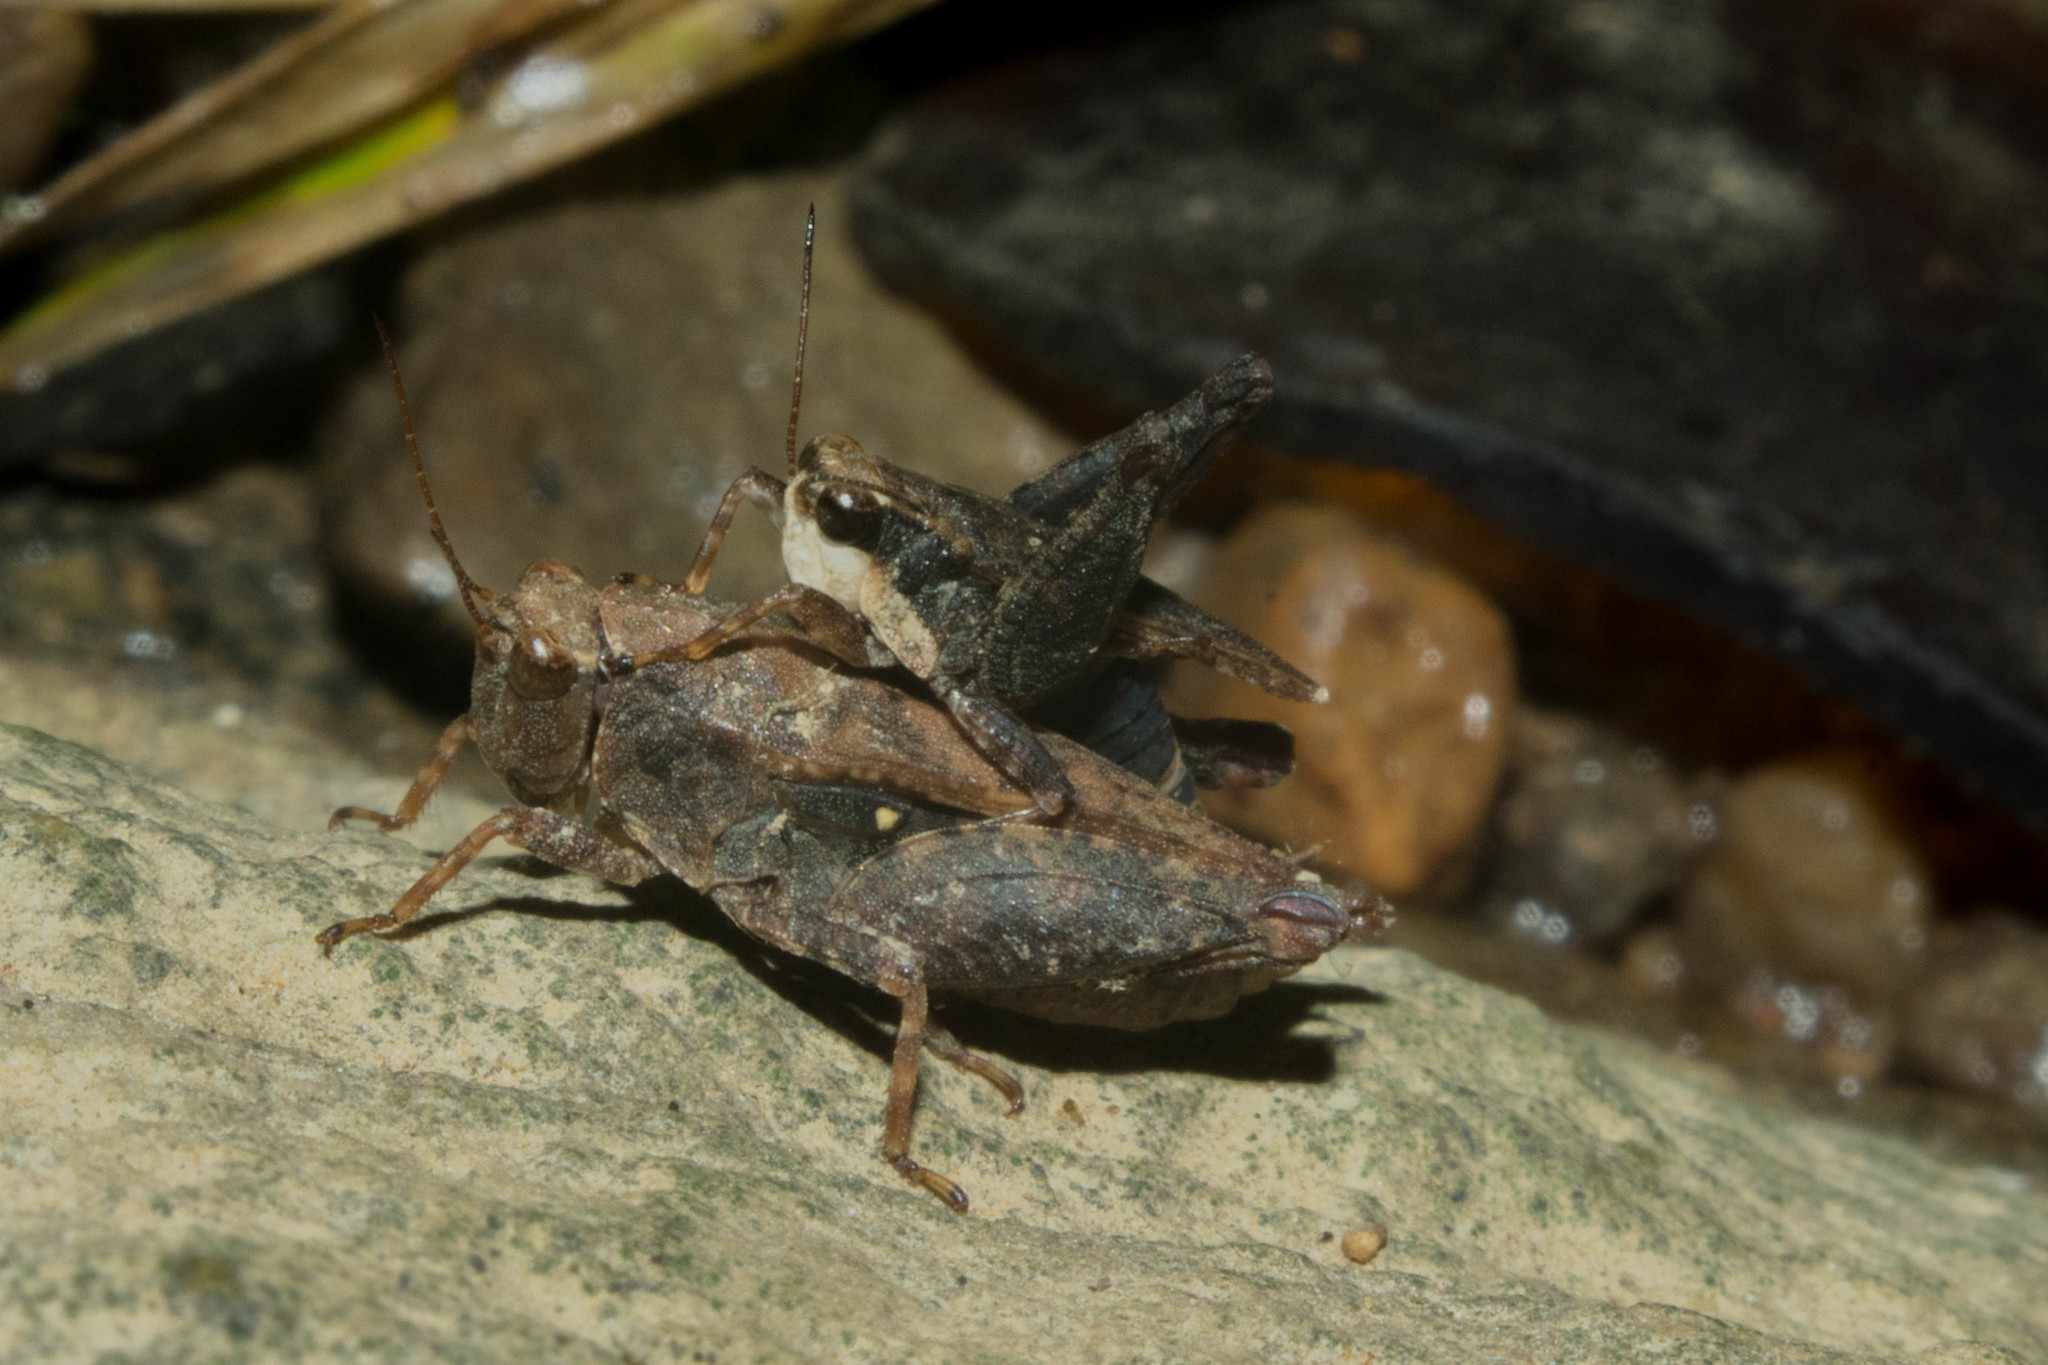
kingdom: Animalia
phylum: Arthropoda
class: Insecta
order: Orthoptera
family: Tetrigidae
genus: Tettigidea
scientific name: Tettigidea laterale
